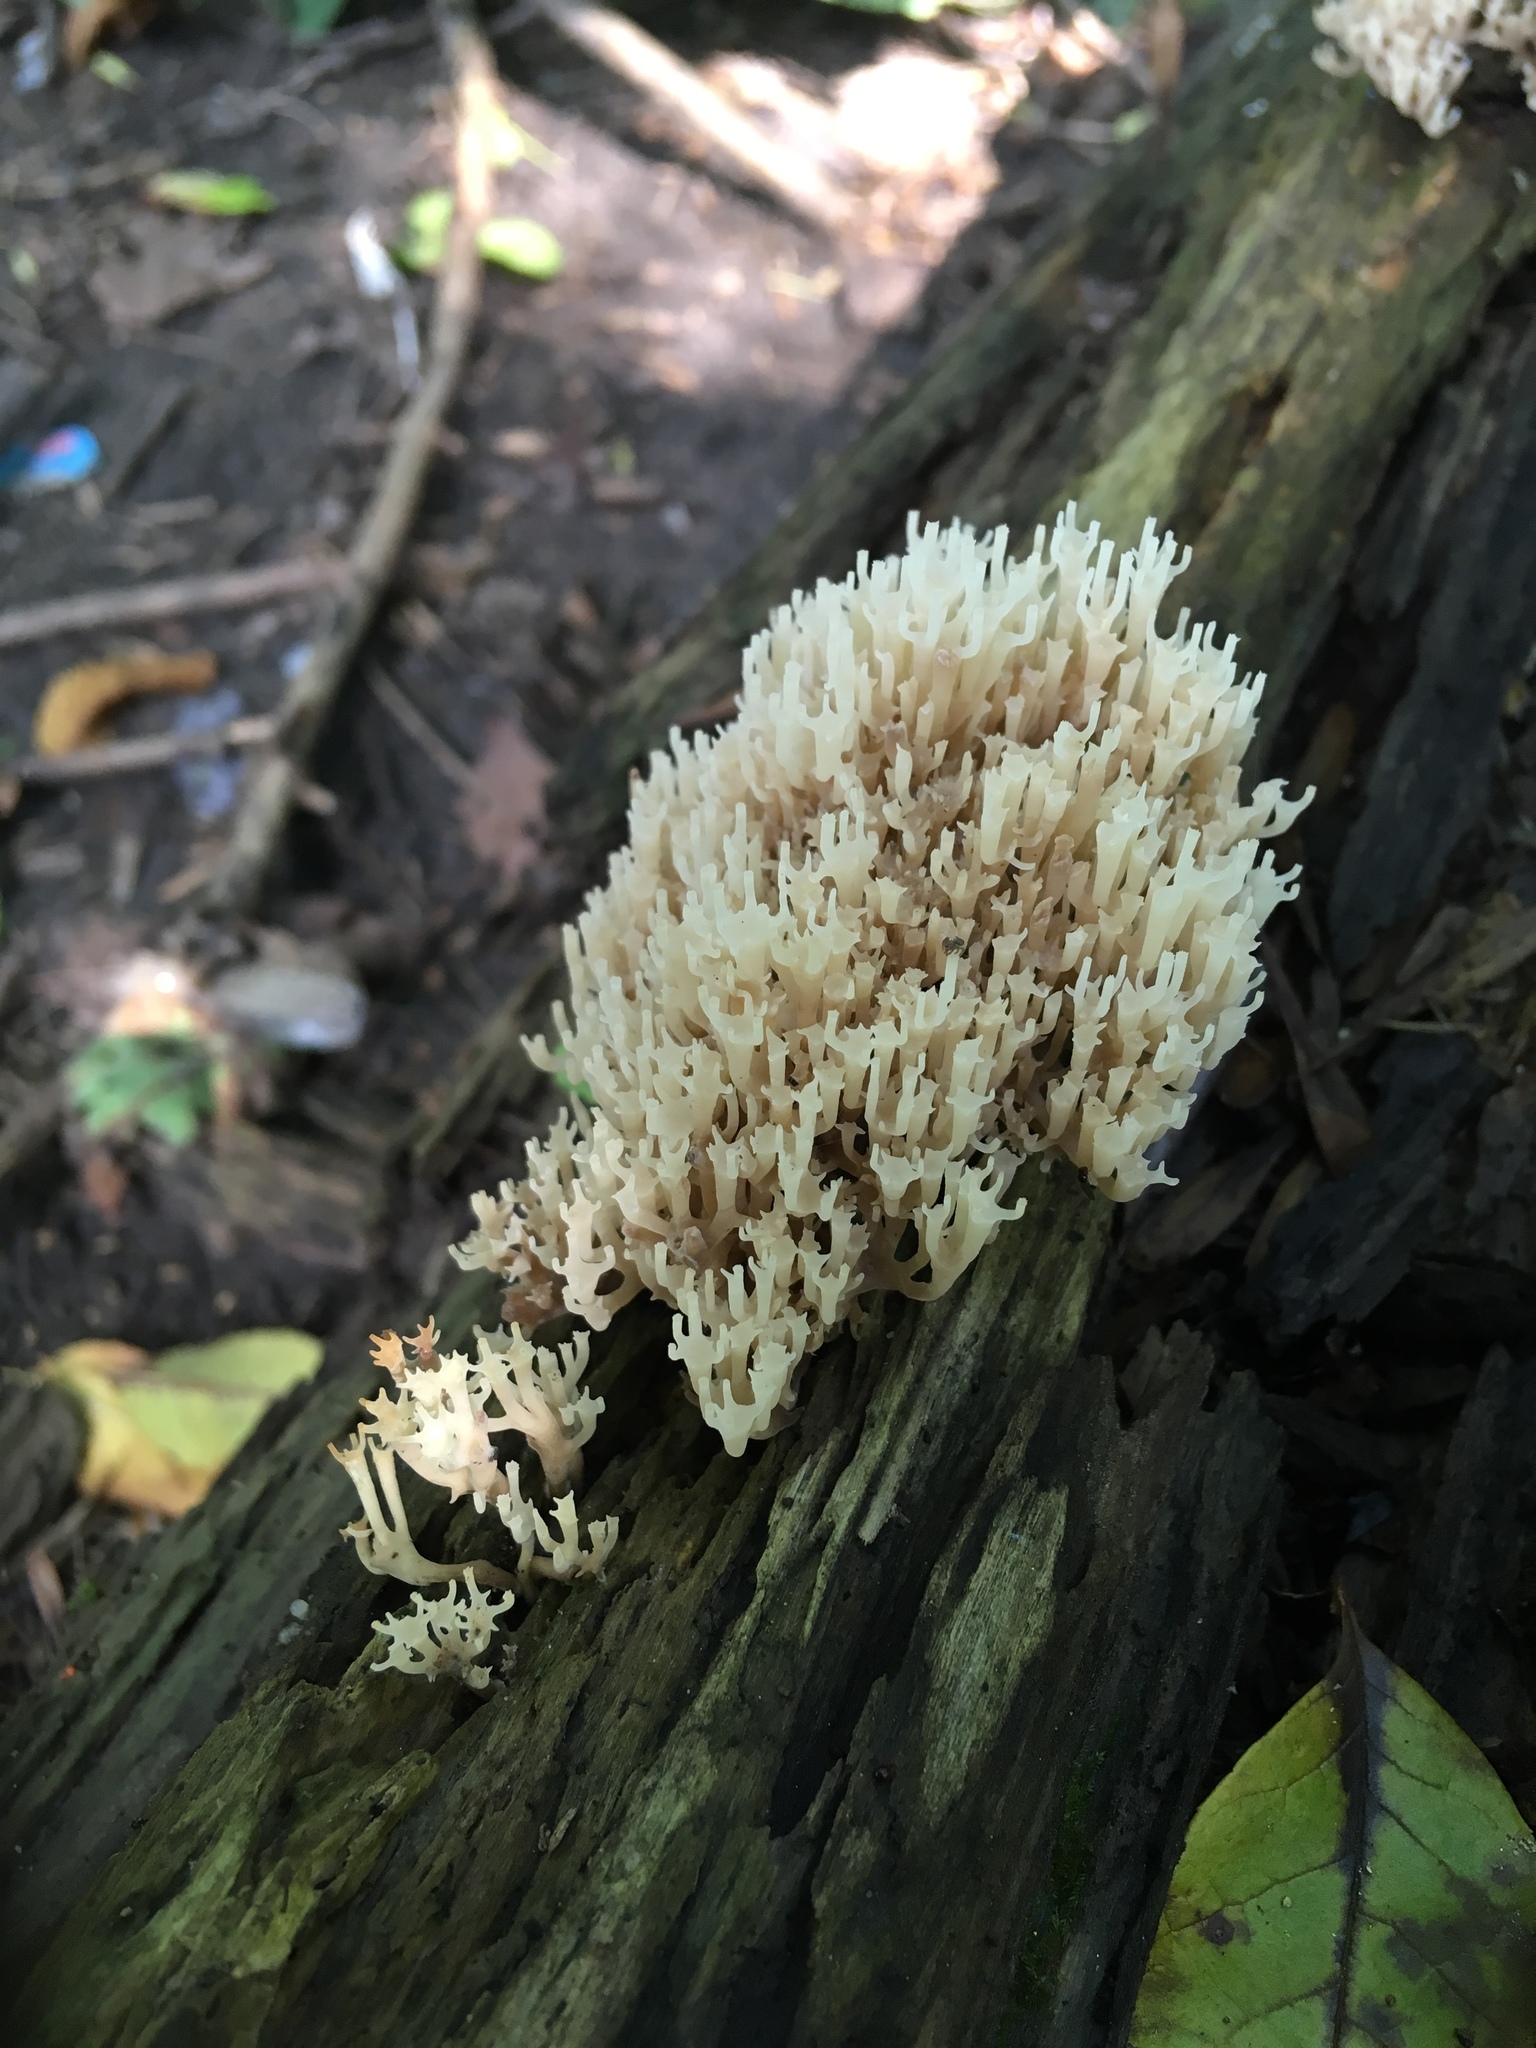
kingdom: Fungi
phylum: Basidiomycota
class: Agaricomycetes
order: Russulales
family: Auriscalpiaceae
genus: Artomyces
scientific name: Artomyces pyxidatus
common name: Crown-tipped coral fungus
